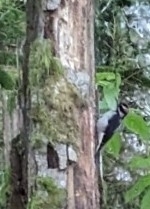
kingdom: Animalia
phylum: Chordata
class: Aves
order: Piciformes
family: Picidae
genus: Leuconotopicus
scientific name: Leuconotopicus villosus
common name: Hairy woodpecker
